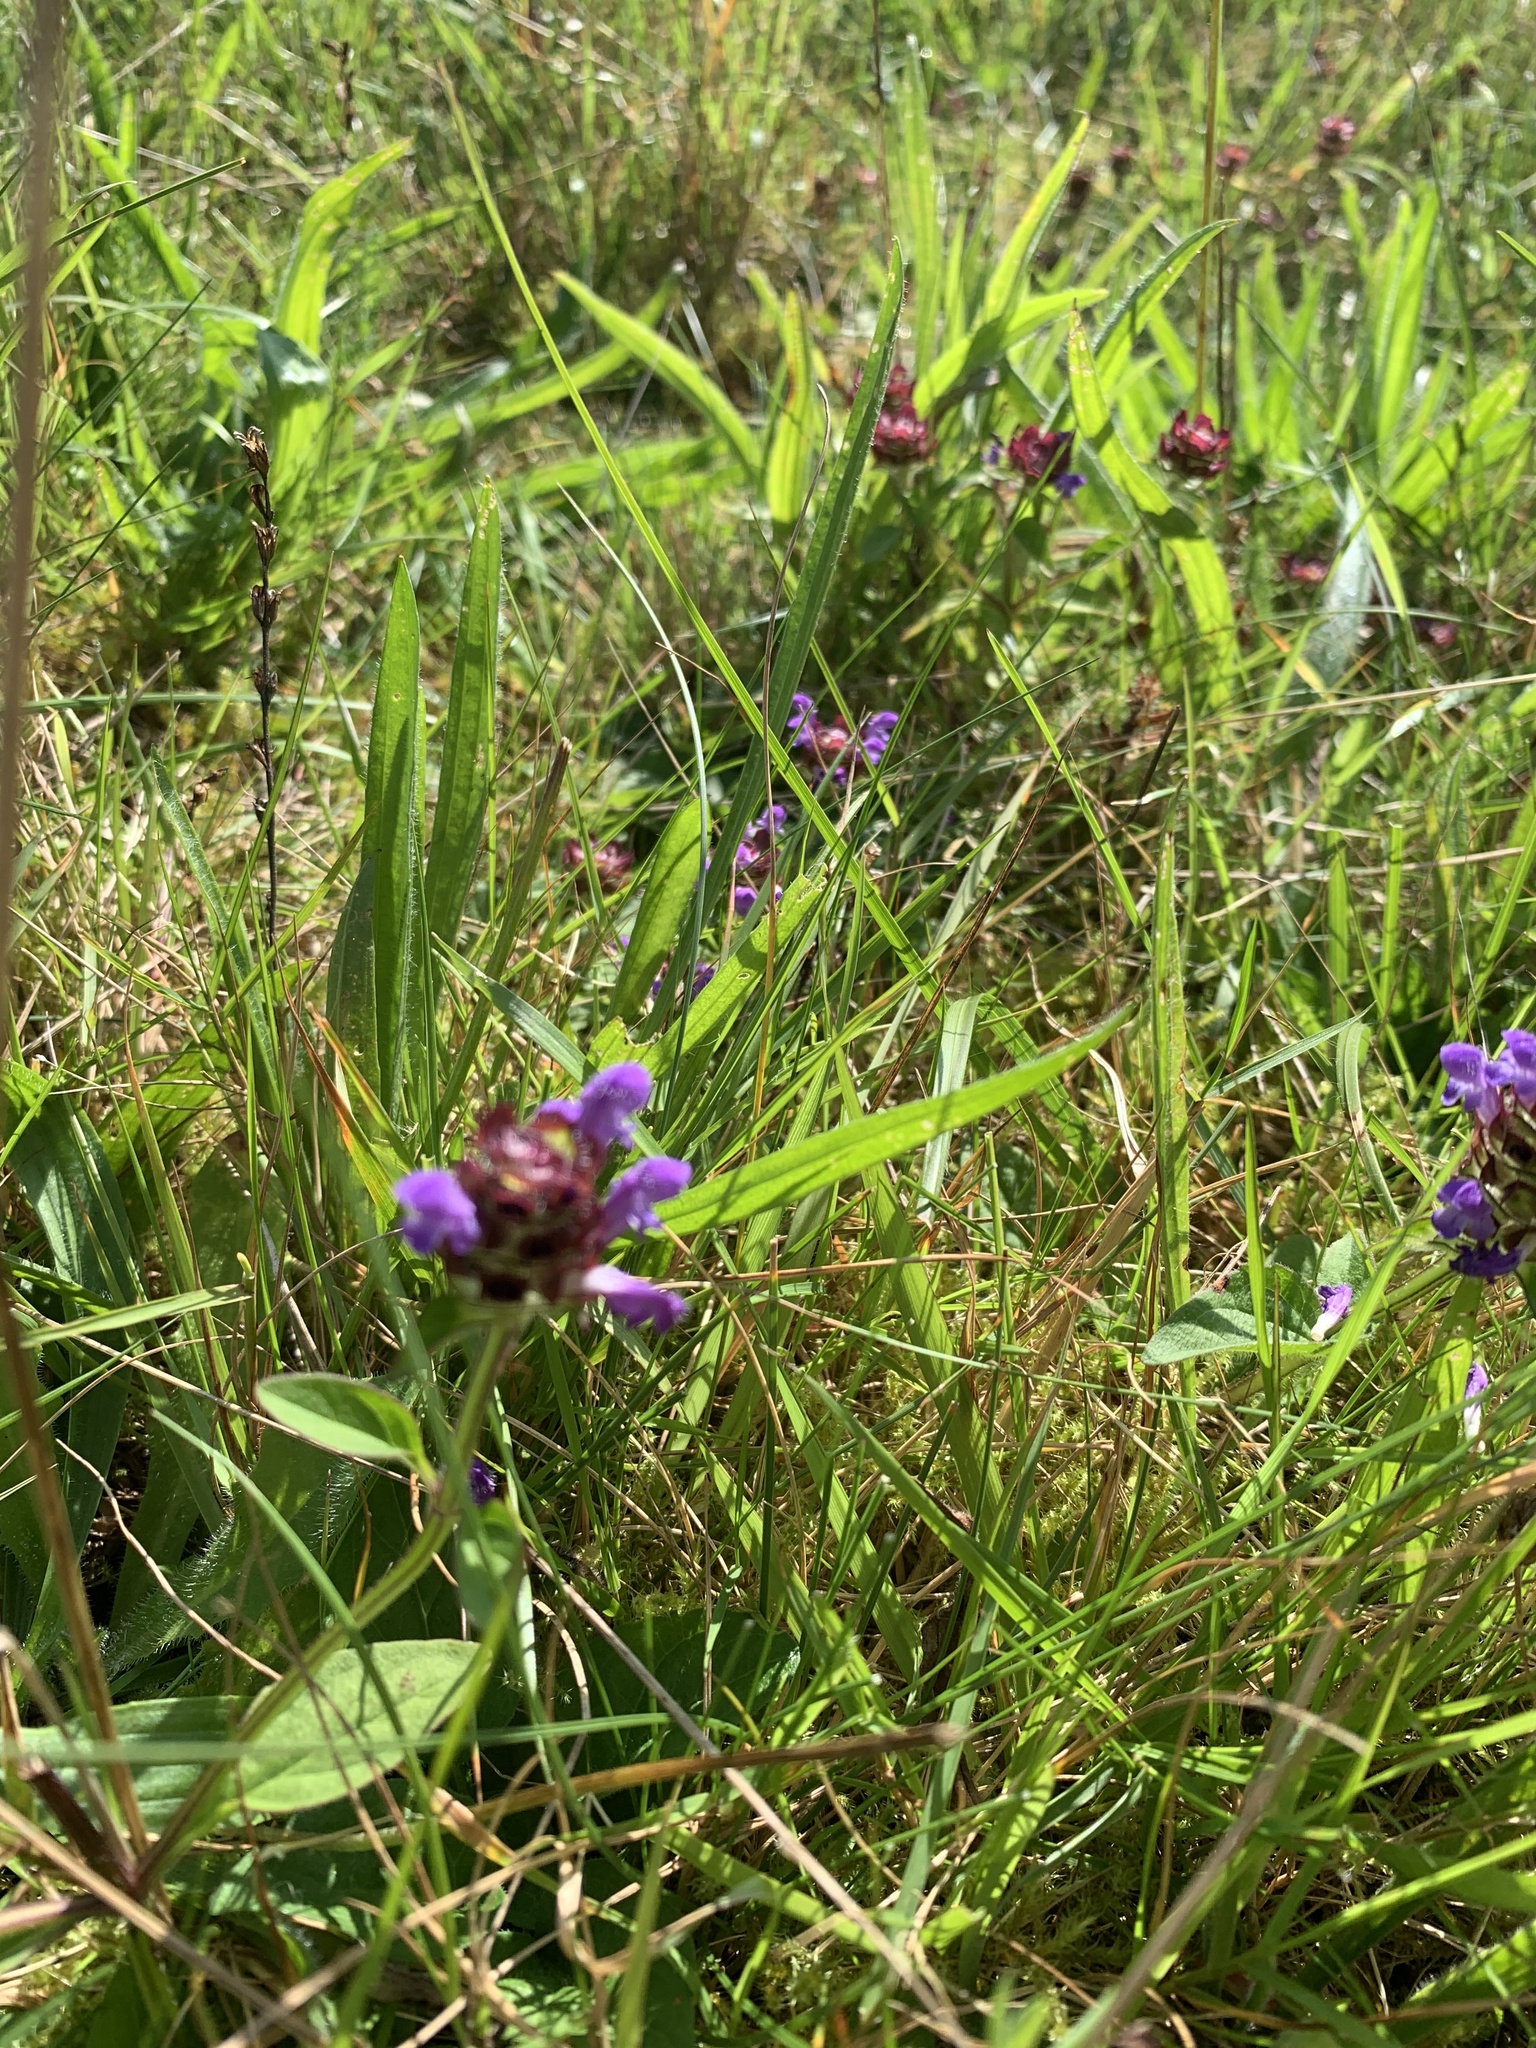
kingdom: Plantae
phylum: Tracheophyta
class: Magnoliopsida
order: Lamiales
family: Lamiaceae
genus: Prunella
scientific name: Prunella vulgaris
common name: Heal-all
